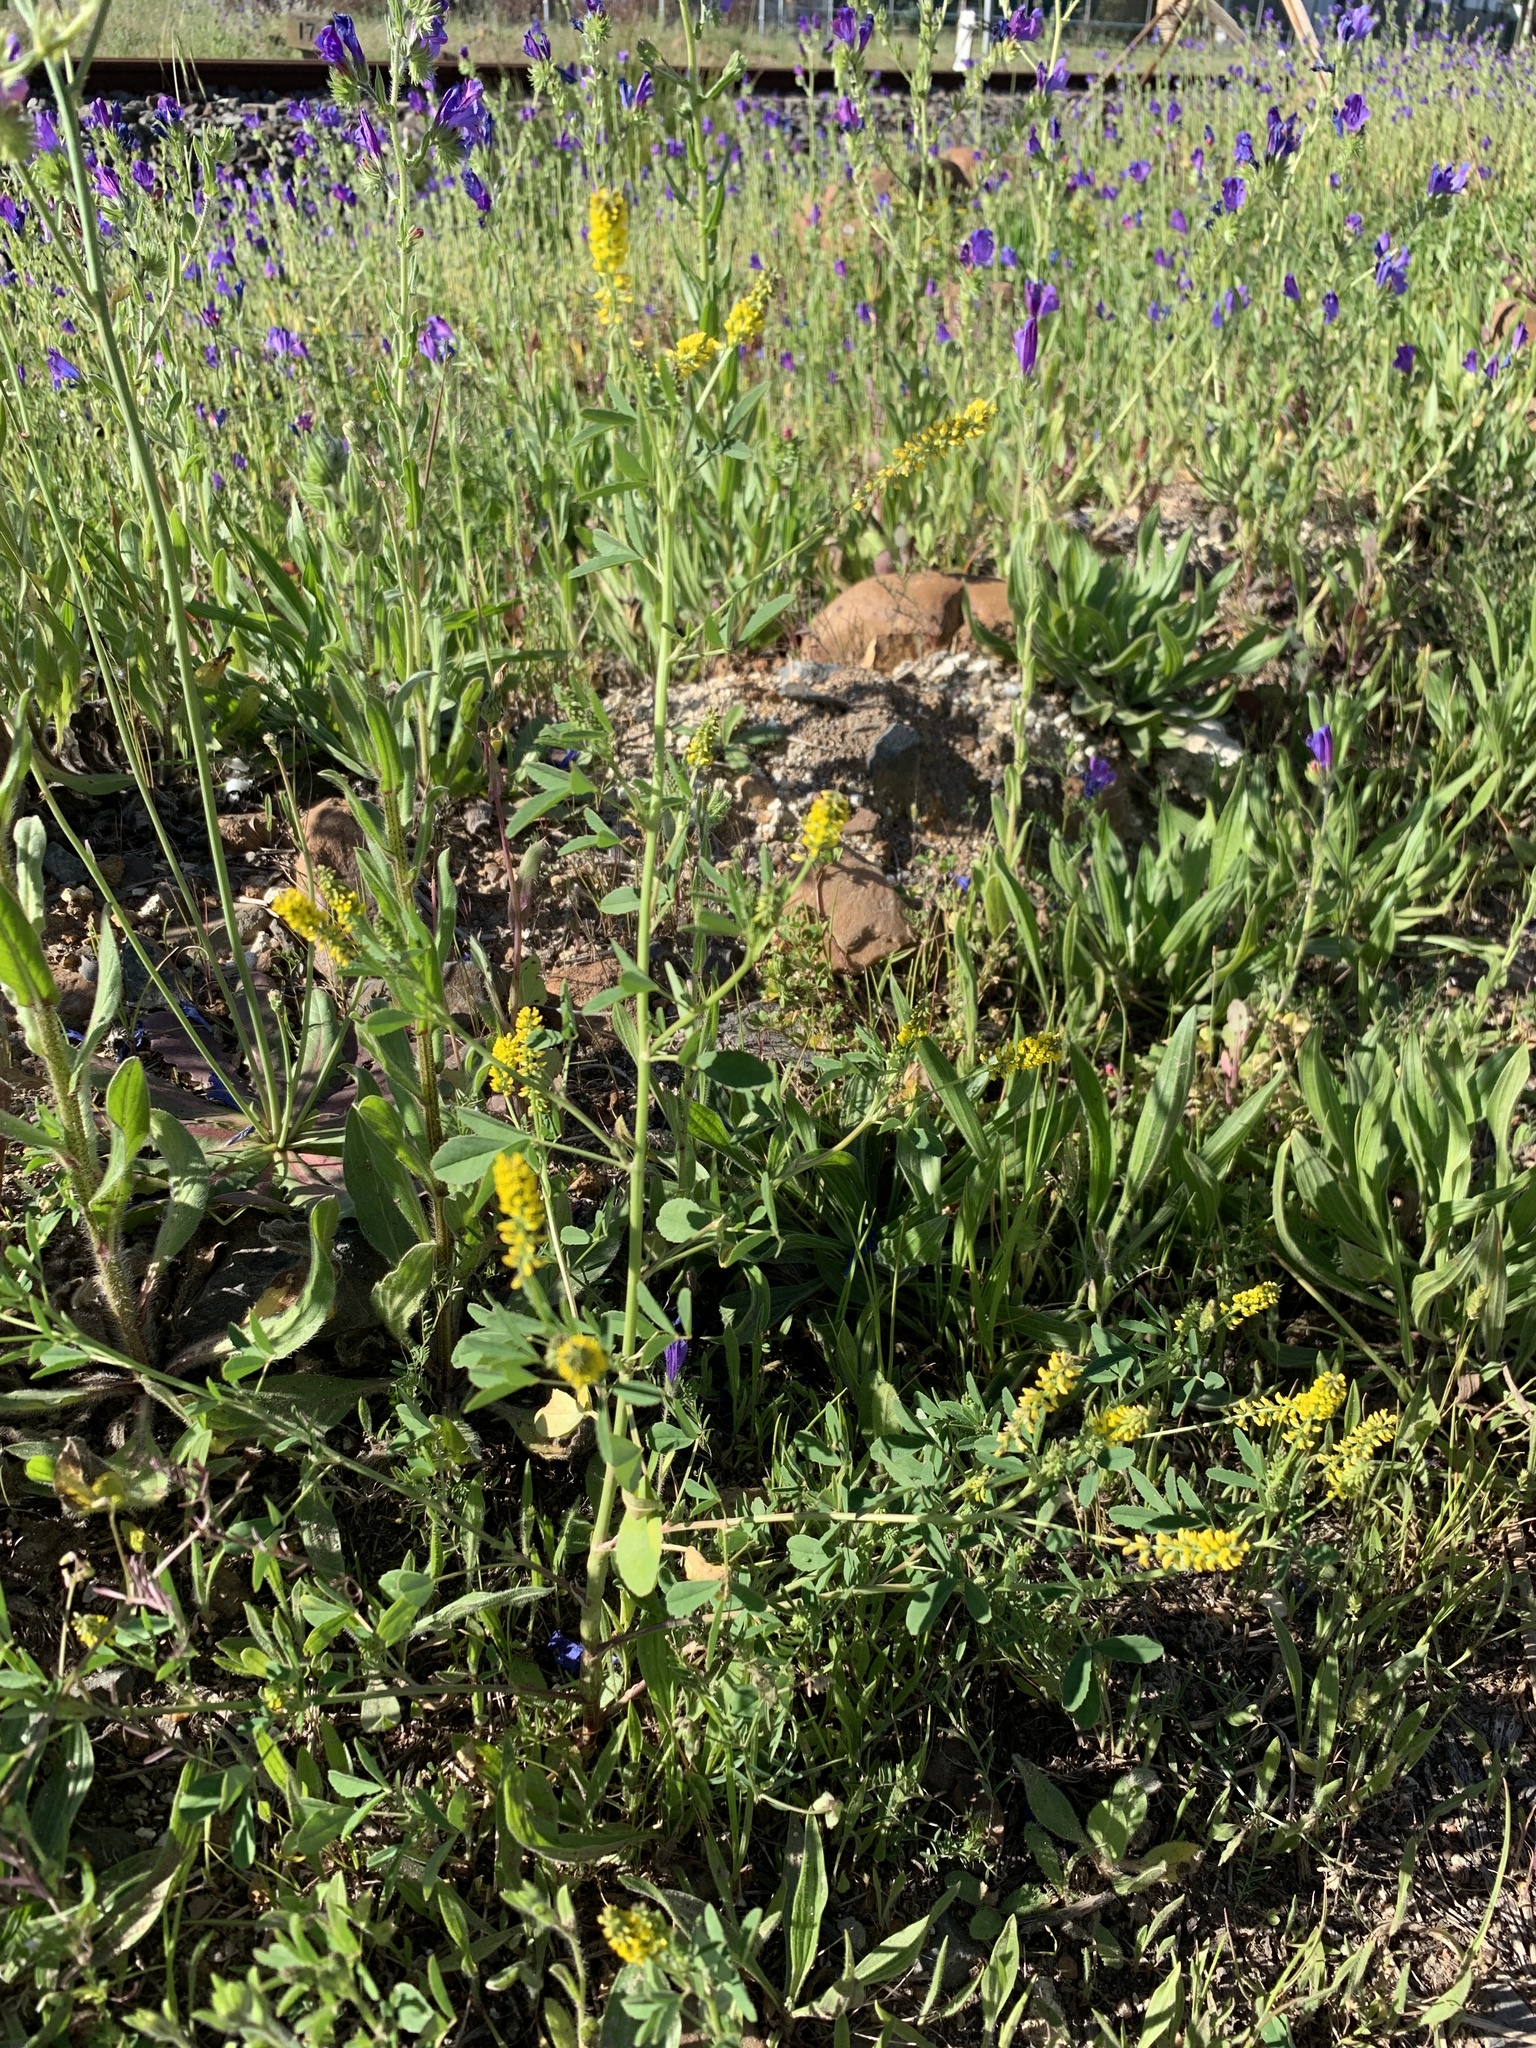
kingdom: Plantae
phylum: Tracheophyta
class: Magnoliopsida
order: Fabales
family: Fabaceae
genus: Melilotus
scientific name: Melilotus indicus
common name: Small melilot
